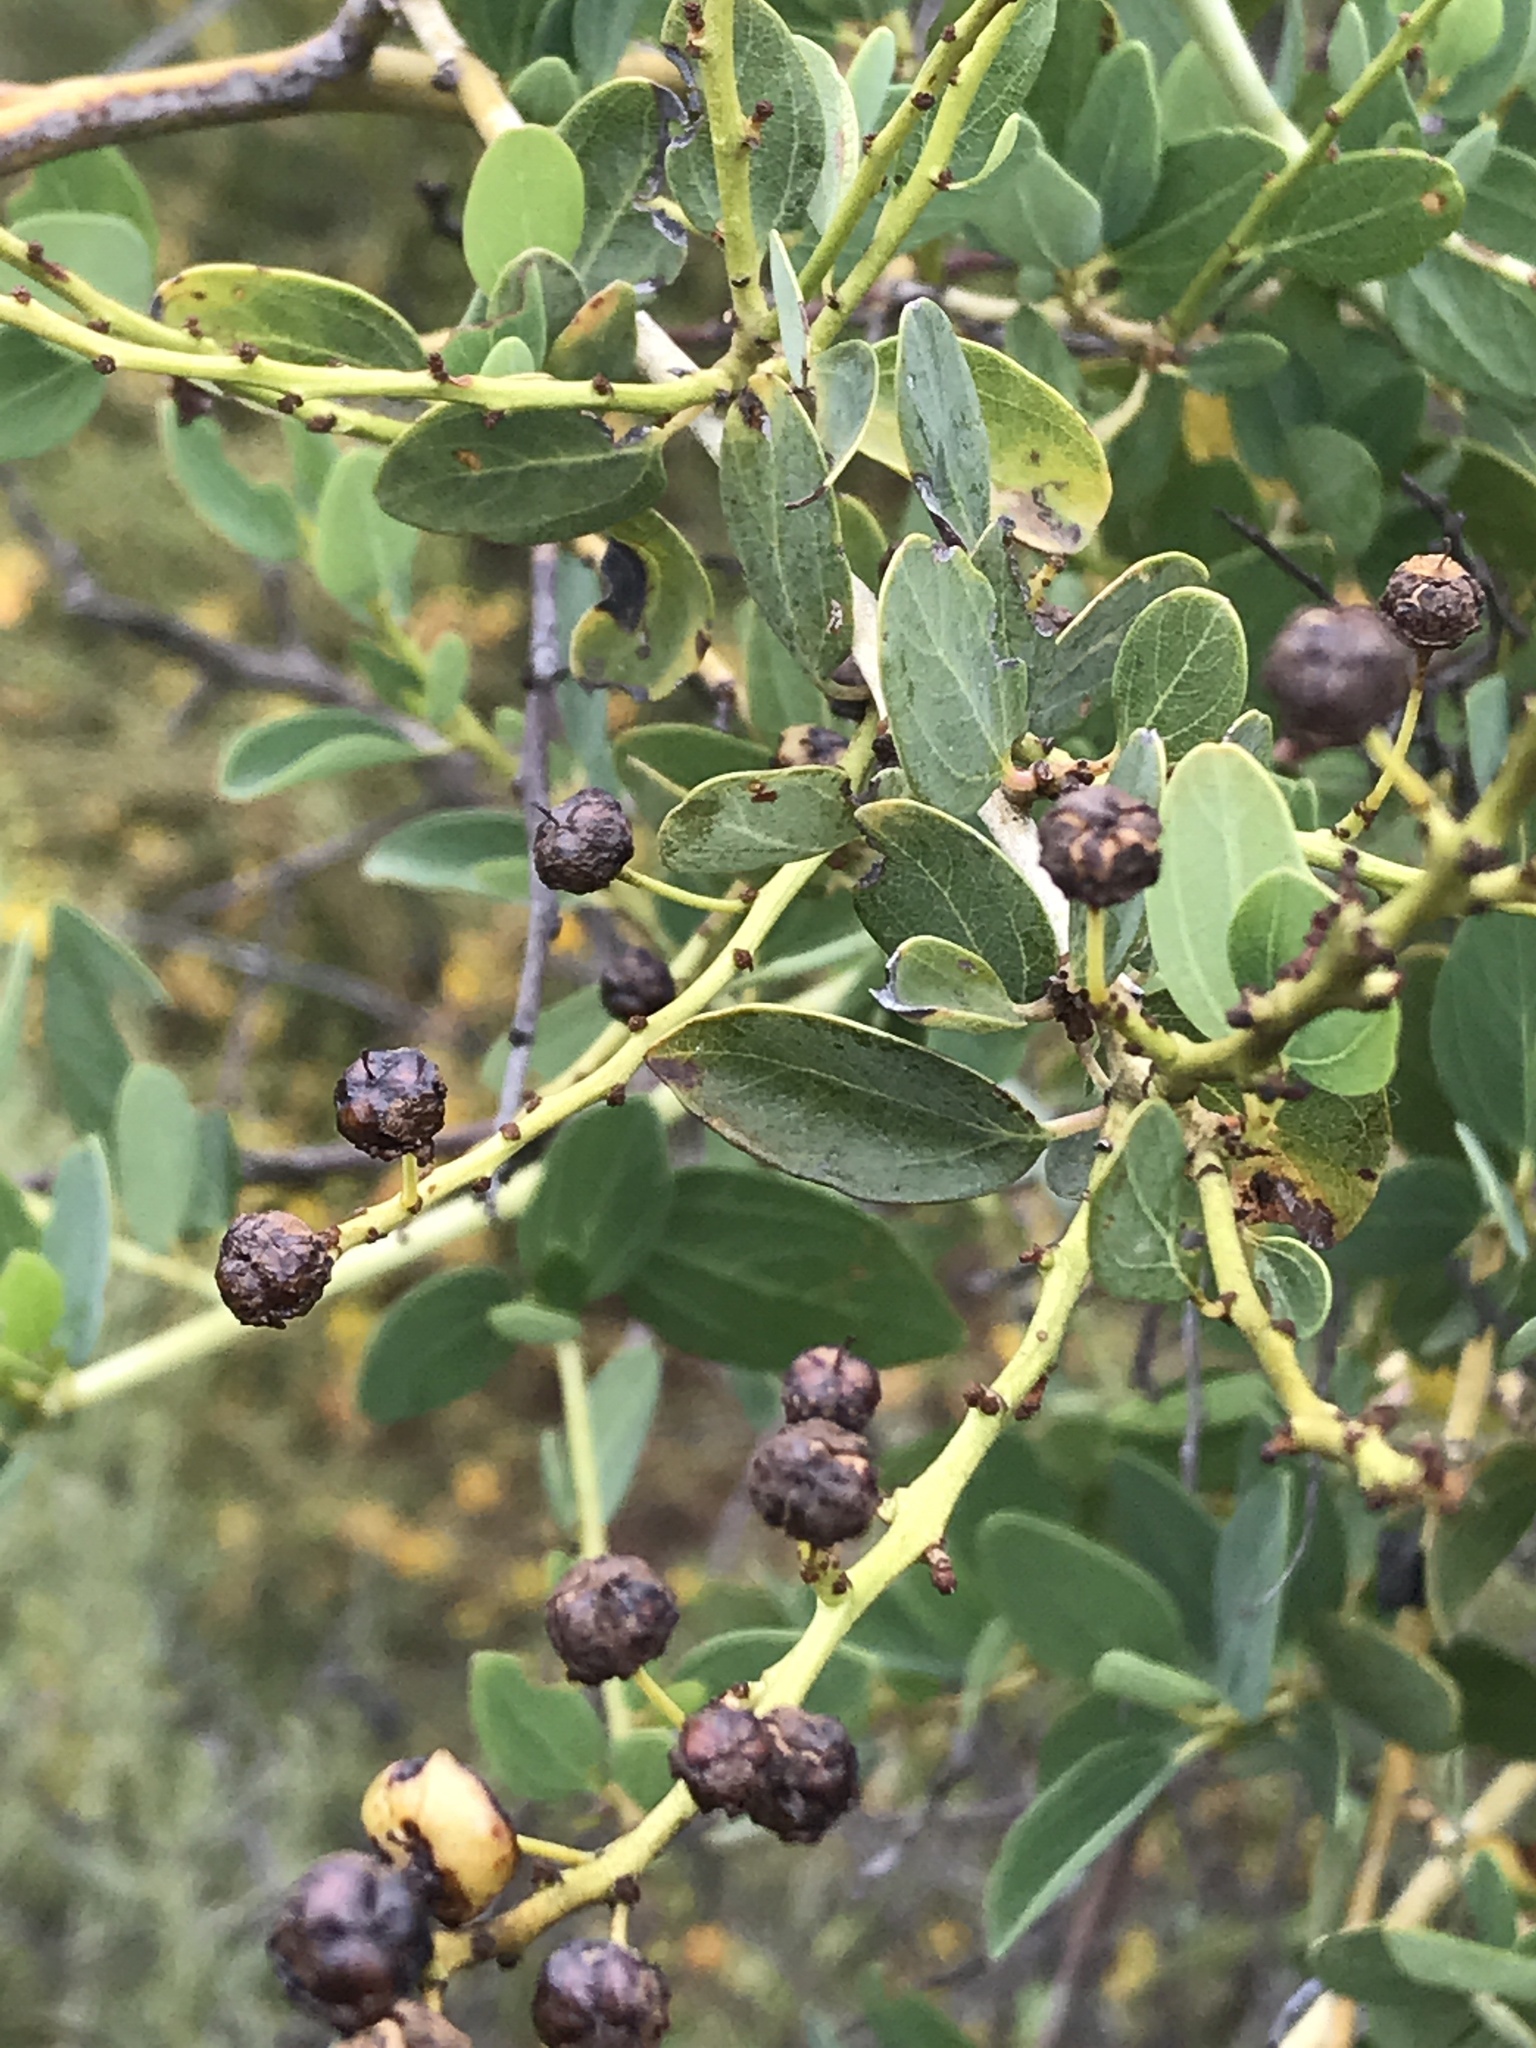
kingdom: Plantae
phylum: Tracheophyta
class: Magnoliopsida
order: Rosales
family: Rhamnaceae
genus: Ceanothus
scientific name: Ceanothus leucodermis
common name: Chaparral whitethorn
